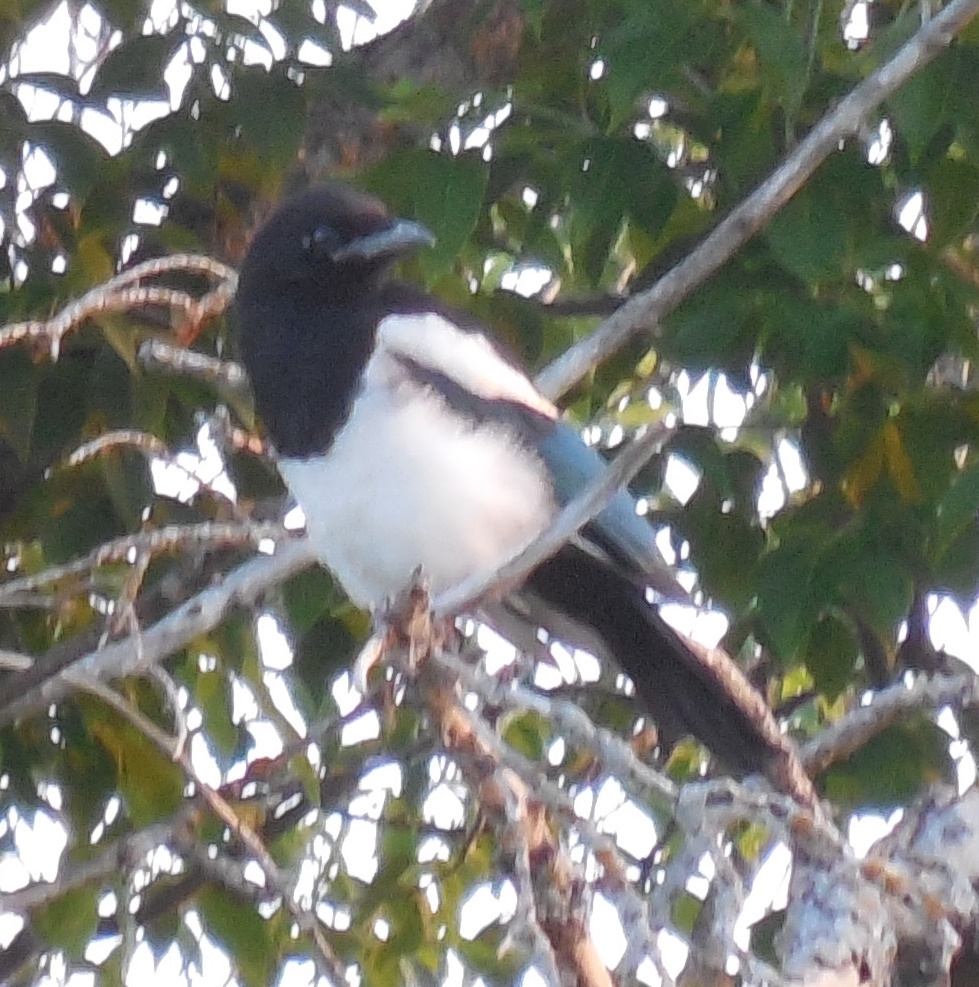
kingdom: Animalia
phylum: Chordata
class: Aves
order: Passeriformes
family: Corvidae
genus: Pica
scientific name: Pica hudsonia
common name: Black-billed magpie
